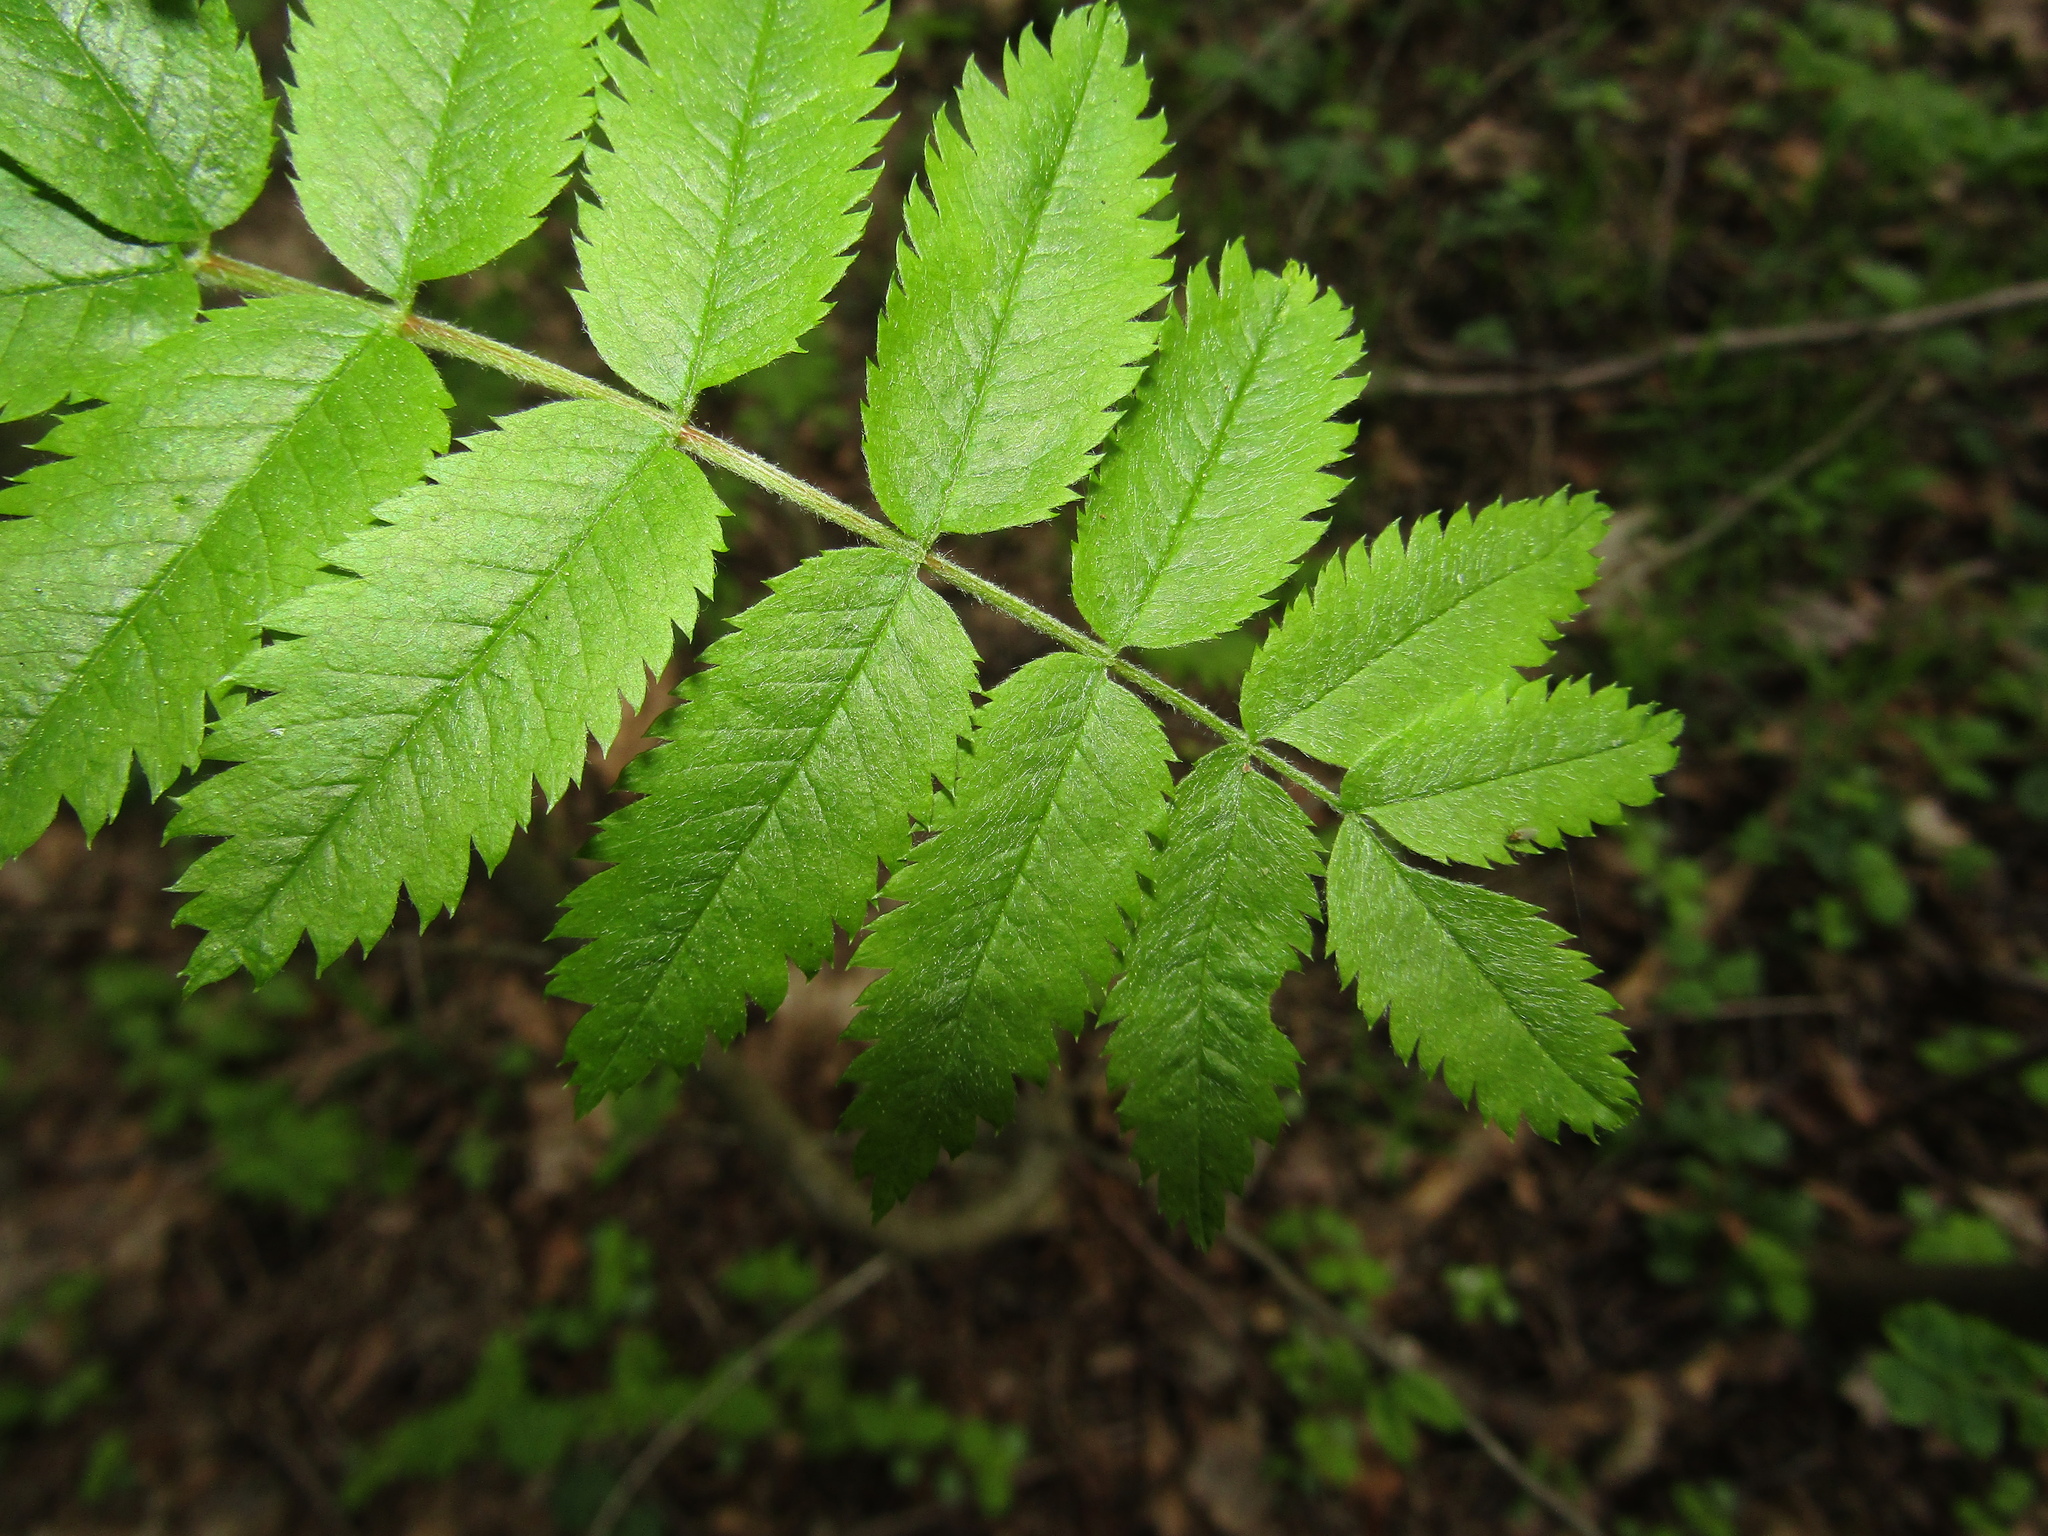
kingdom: Plantae
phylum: Tracheophyta
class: Magnoliopsida
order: Rosales
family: Rosaceae
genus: Sorbus
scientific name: Sorbus aucuparia
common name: Rowan
